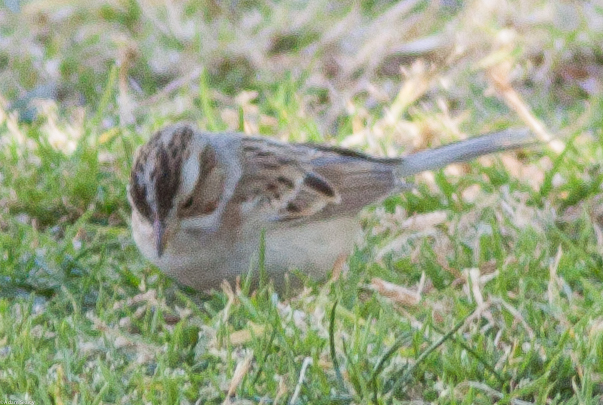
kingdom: Animalia
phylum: Chordata
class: Aves
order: Passeriformes
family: Passerellidae
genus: Spizella
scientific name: Spizella pallida
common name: Clay-colored sparrow
